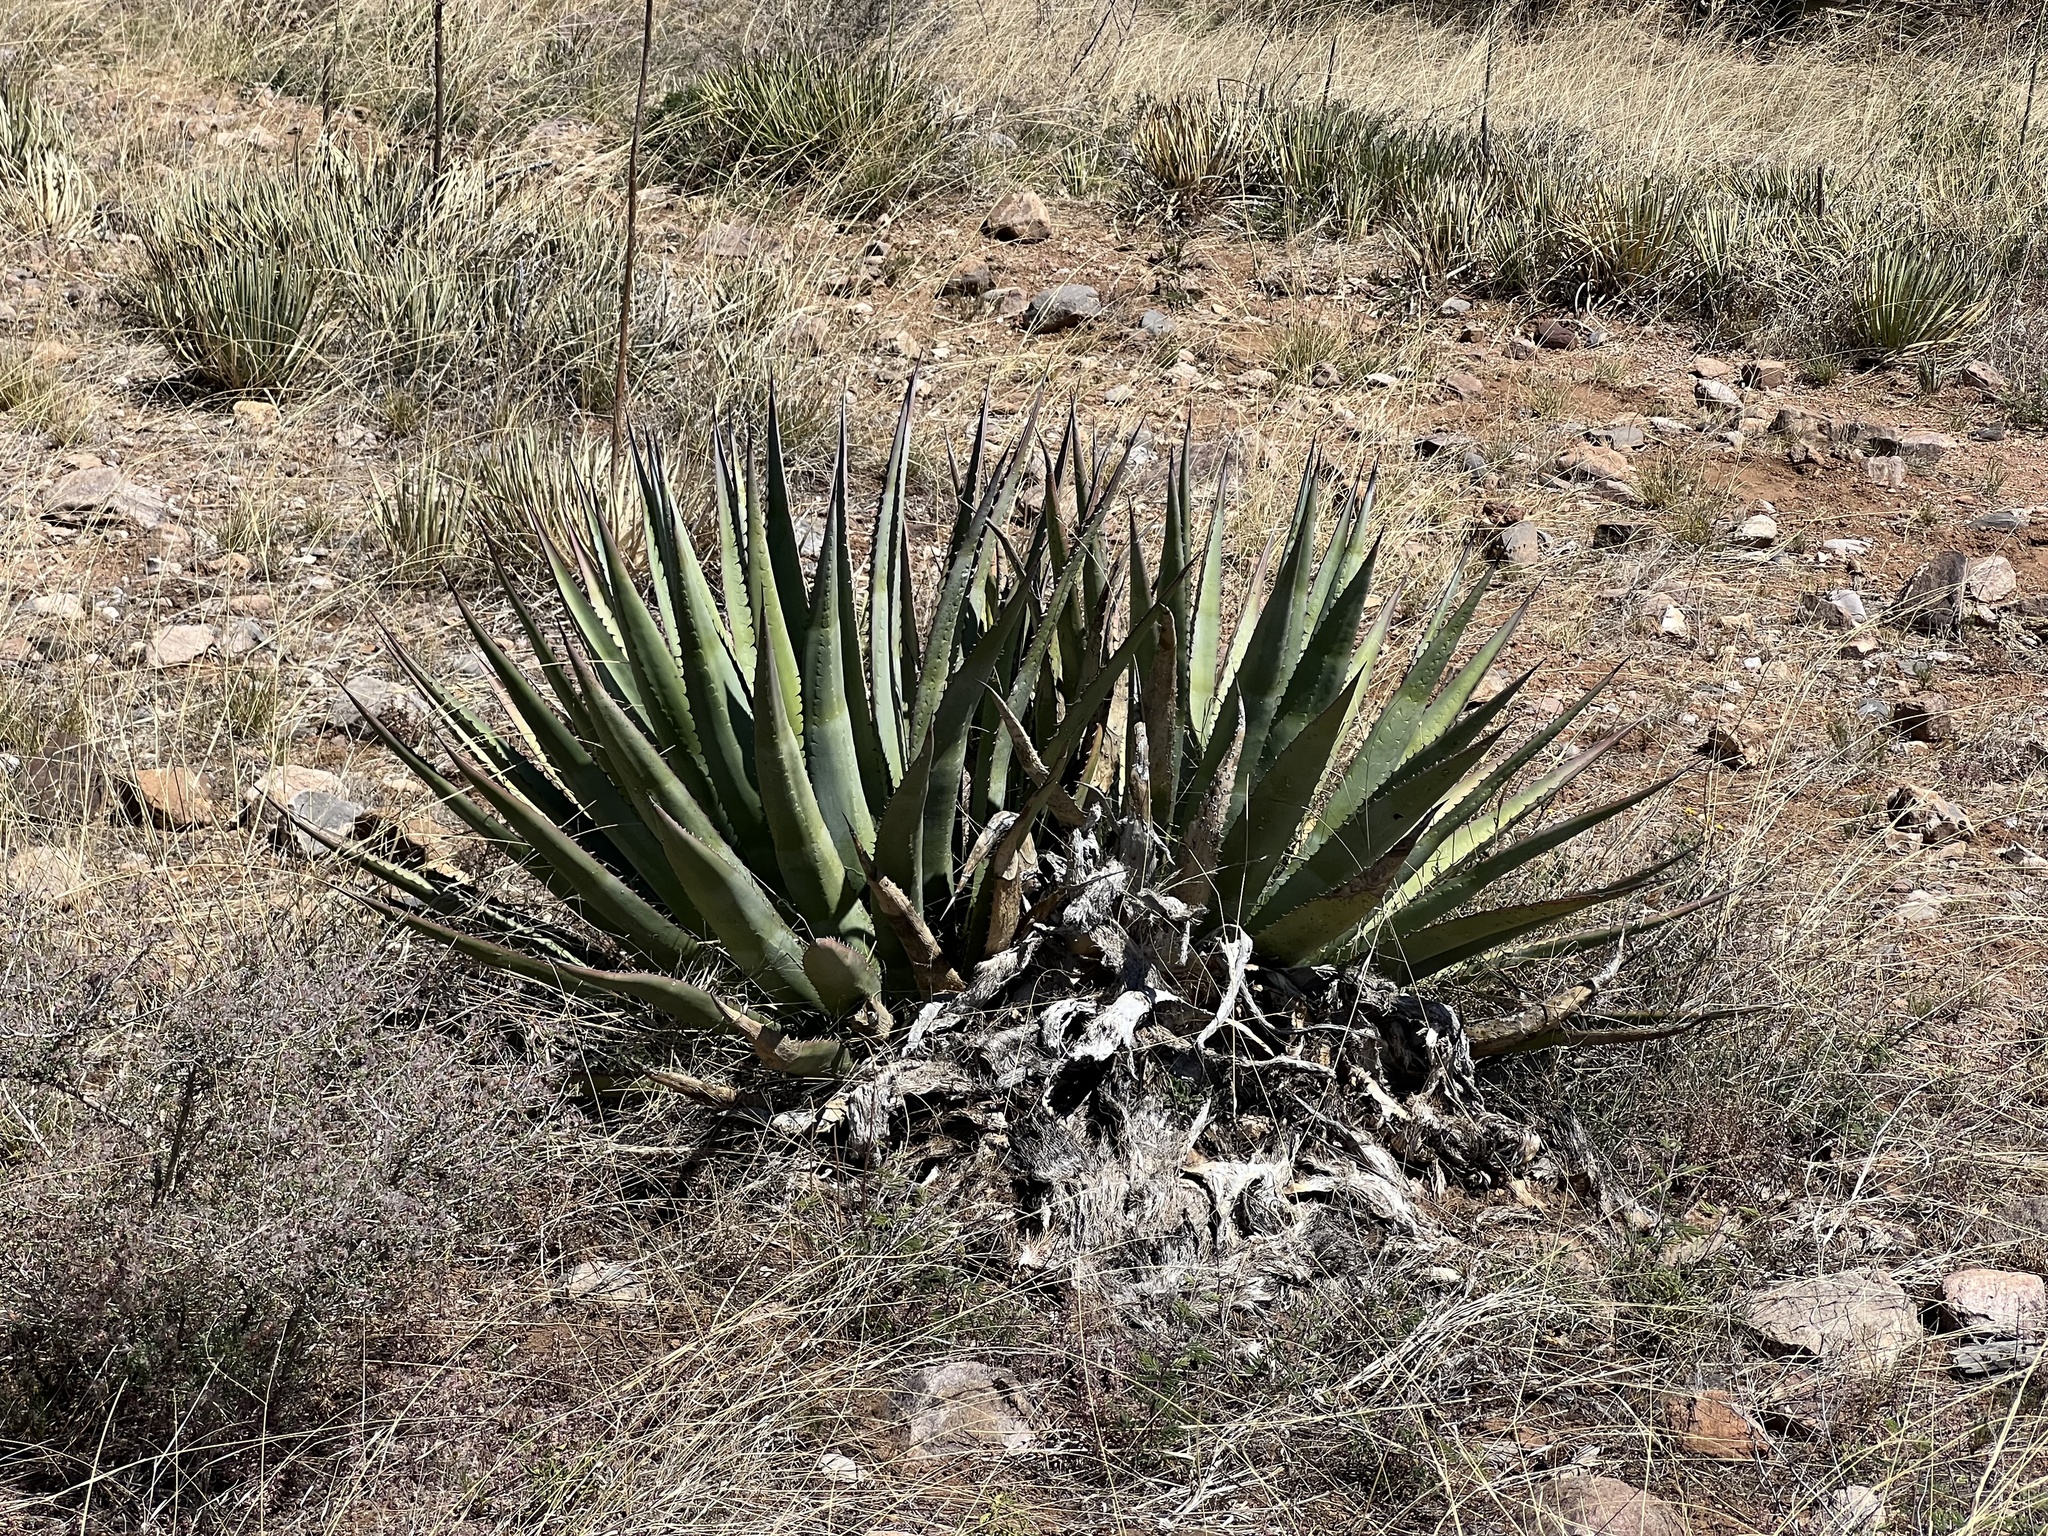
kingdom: Plantae
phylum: Tracheophyta
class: Liliopsida
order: Asparagales
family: Asparagaceae
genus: Agave
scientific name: Agave palmeri
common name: Palmer agave
